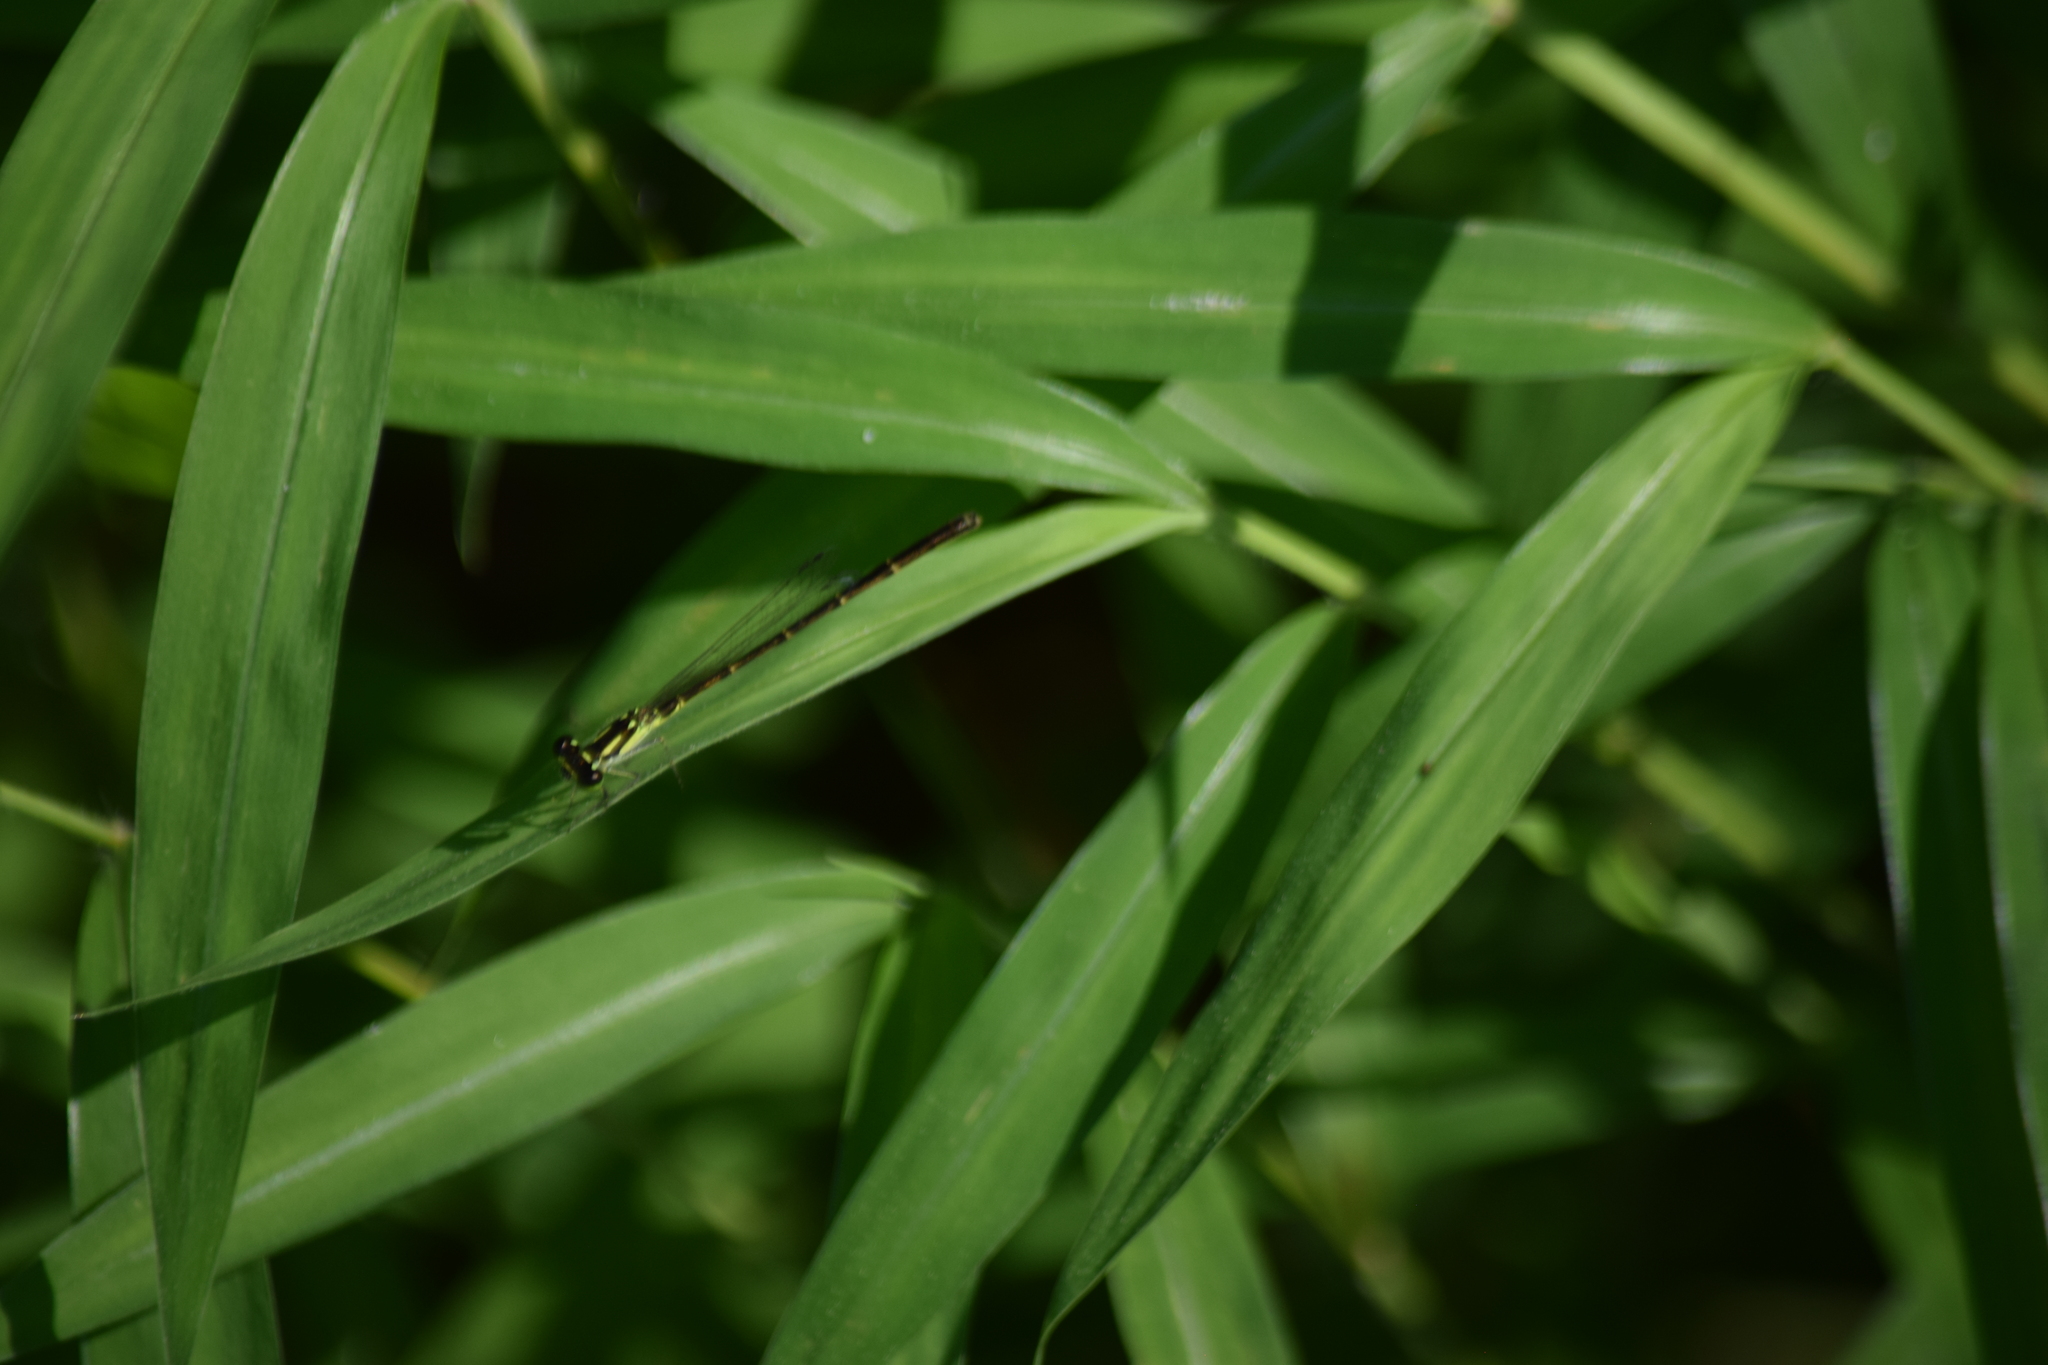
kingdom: Animalia
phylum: Arthropoda
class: Insecta
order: Odonata
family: Coenagrionidae
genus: Ischnura
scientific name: Ischnura posita
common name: Fragile forktail
